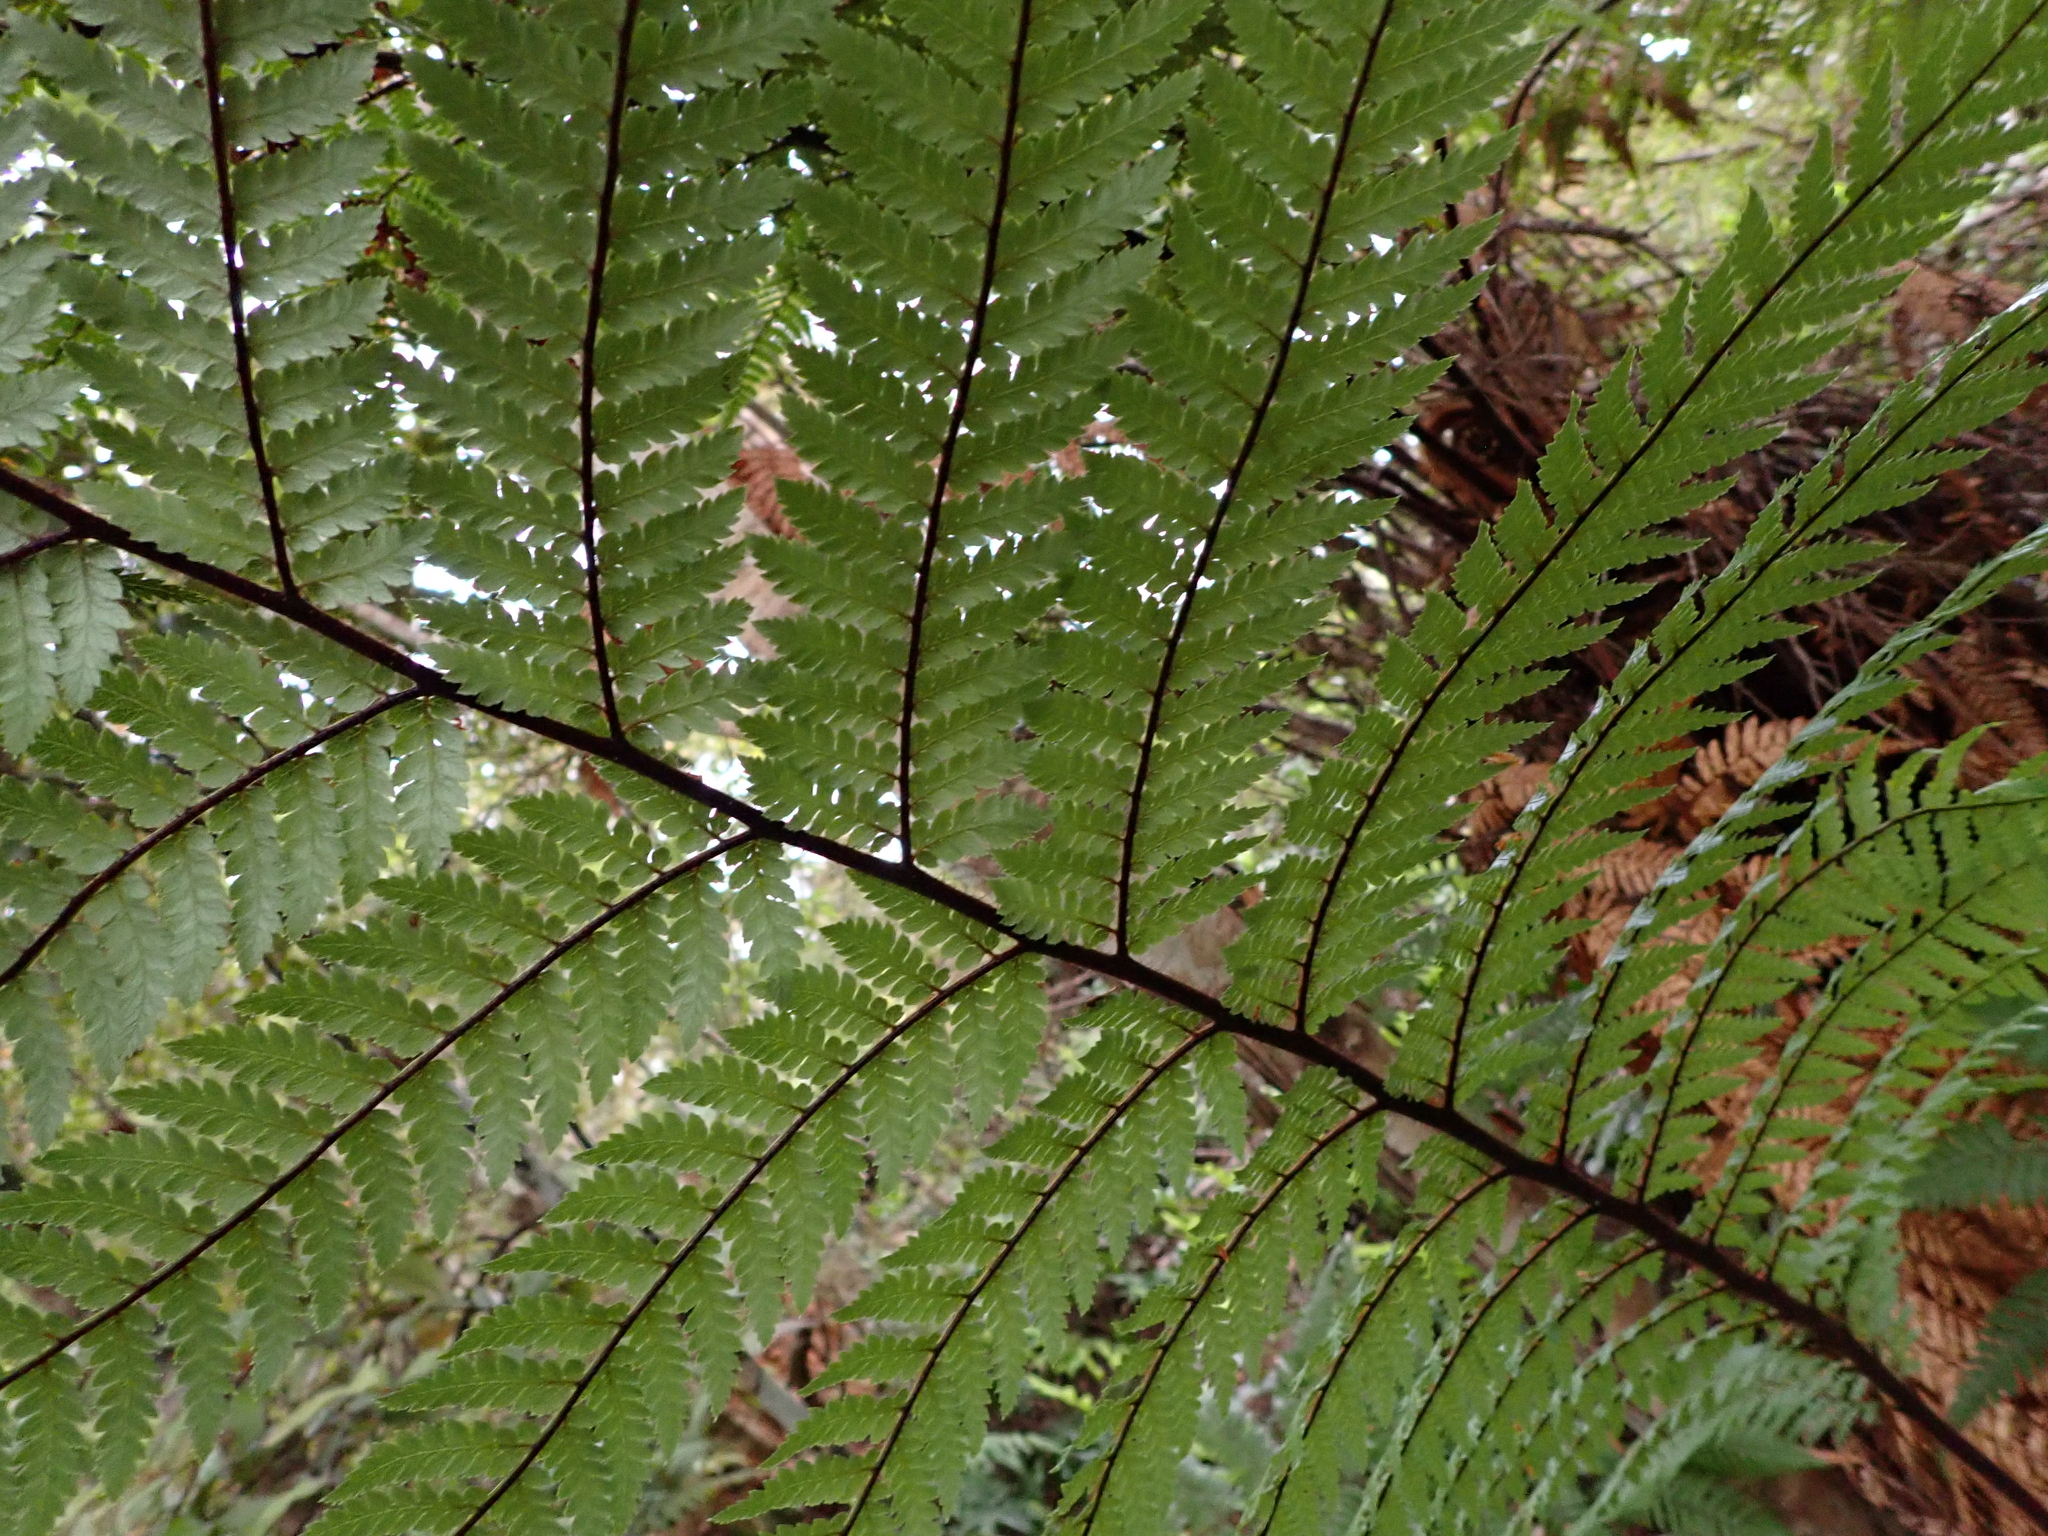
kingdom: Plantae
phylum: Tracheophyta
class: Polypodiopsida
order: Cyatheales
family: Dicksoniaceae
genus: Dicksonia
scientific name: Dicksonia squarrosa
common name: Hard treefern
